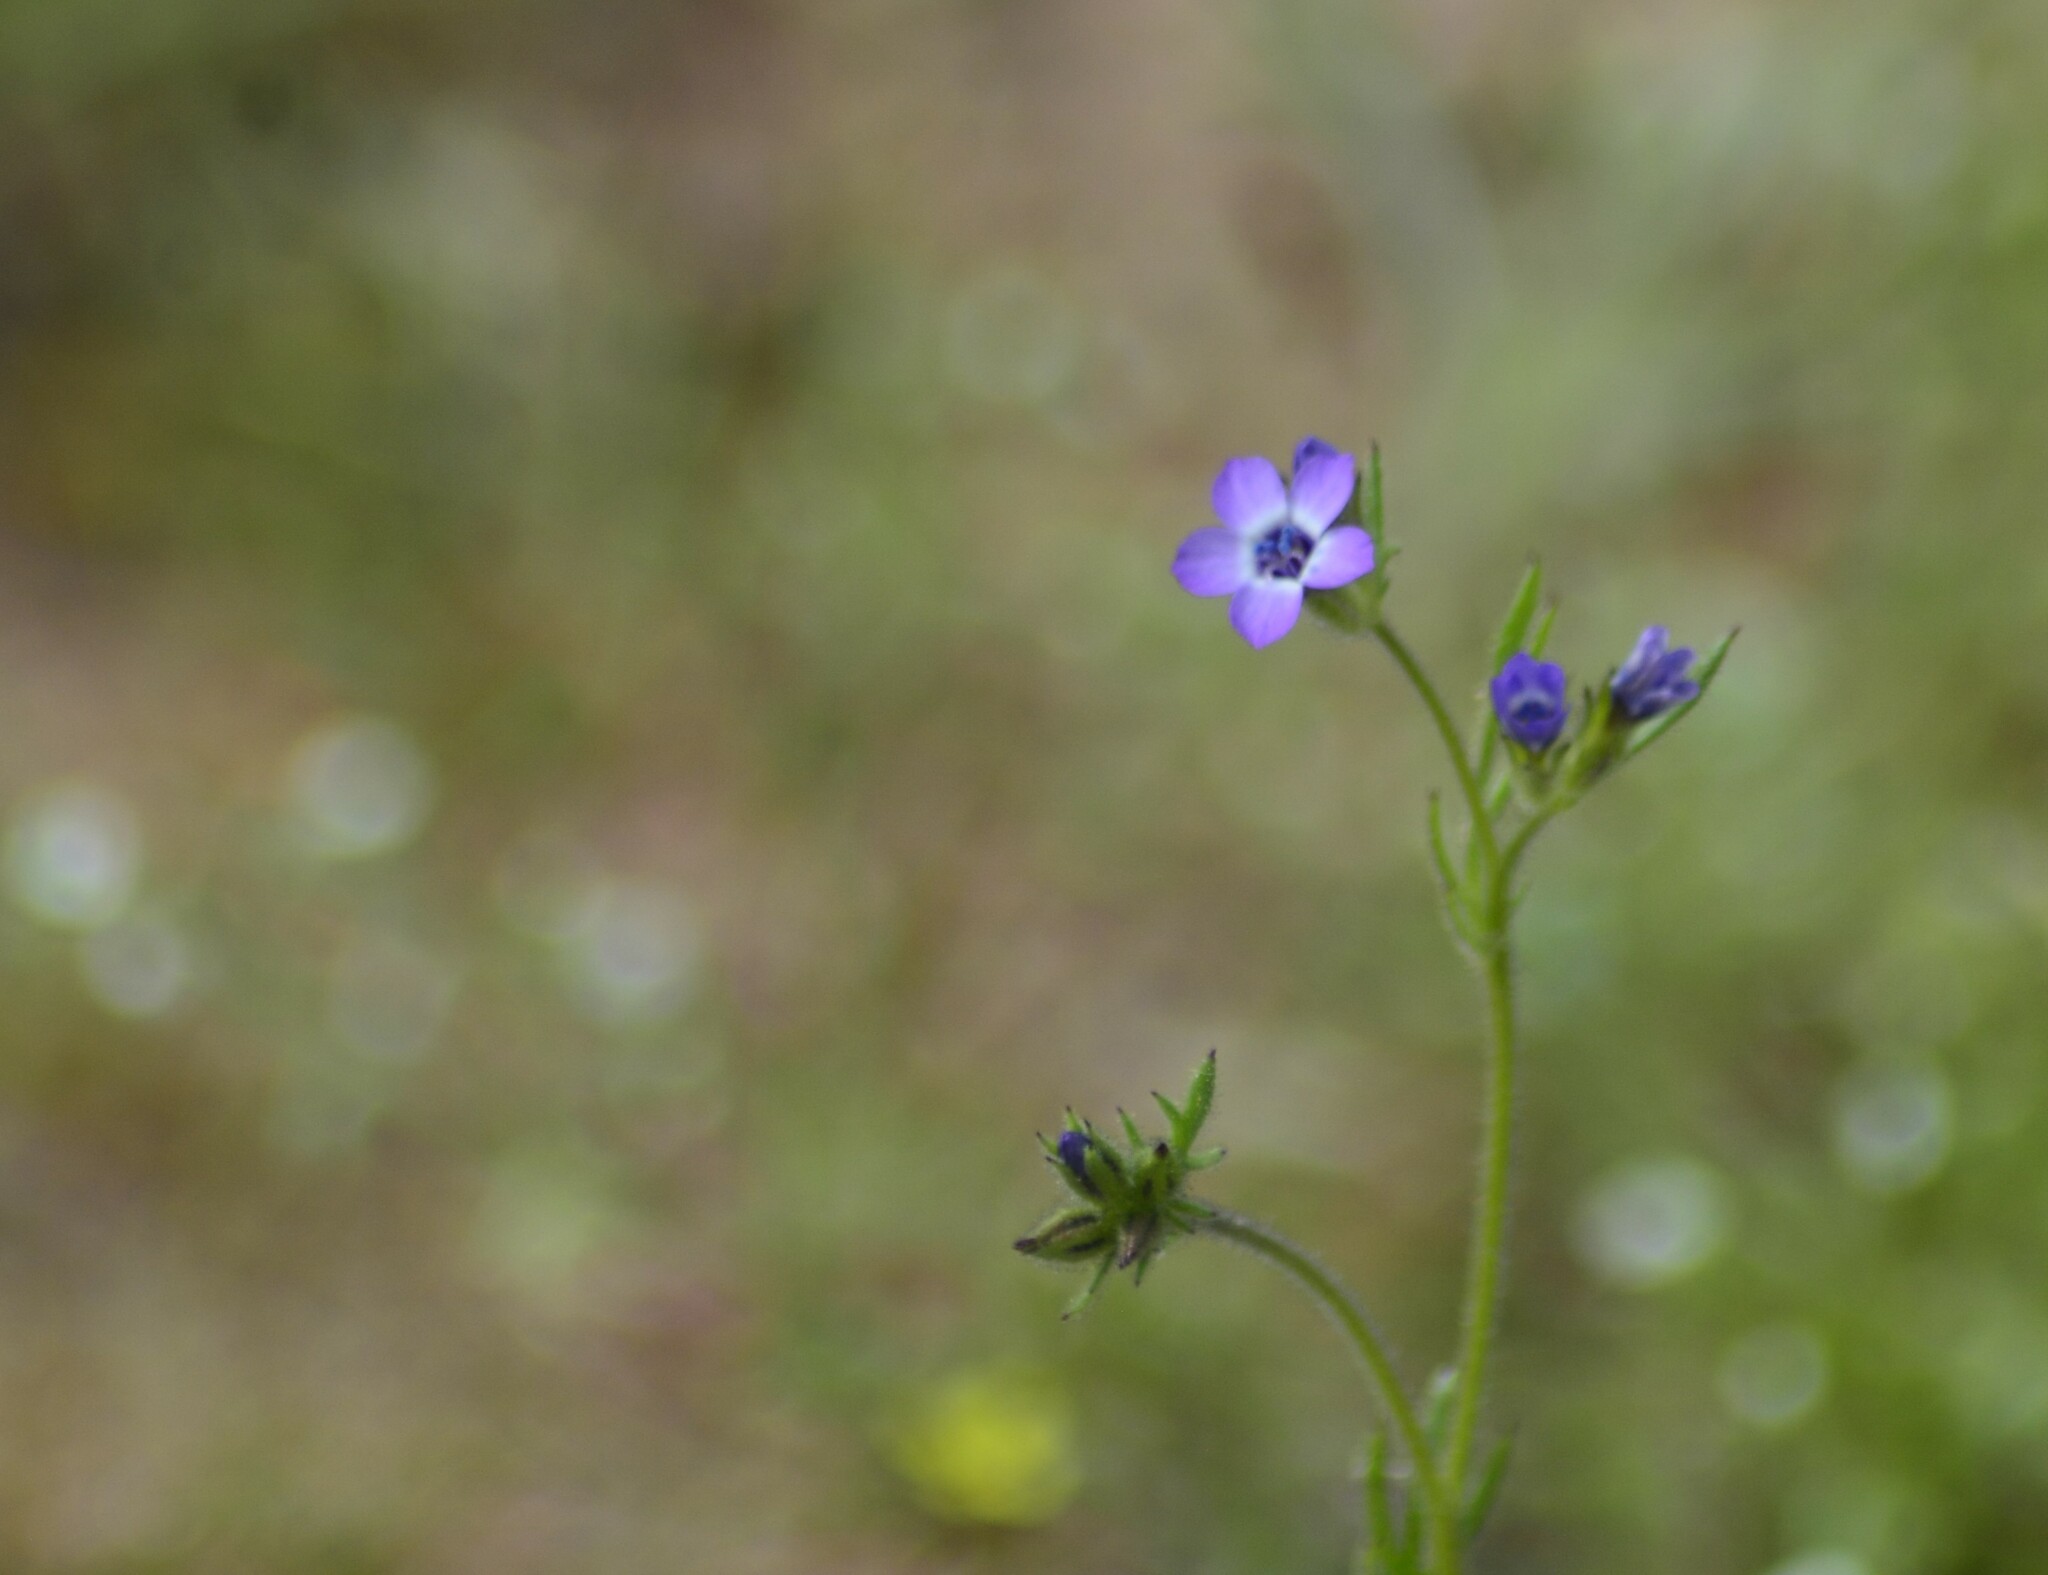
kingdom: Plantae
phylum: Tracheophyta
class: Magnoliopsida
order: Ericales
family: Polemoniaceae
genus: Gilia
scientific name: Gilia laciniata
